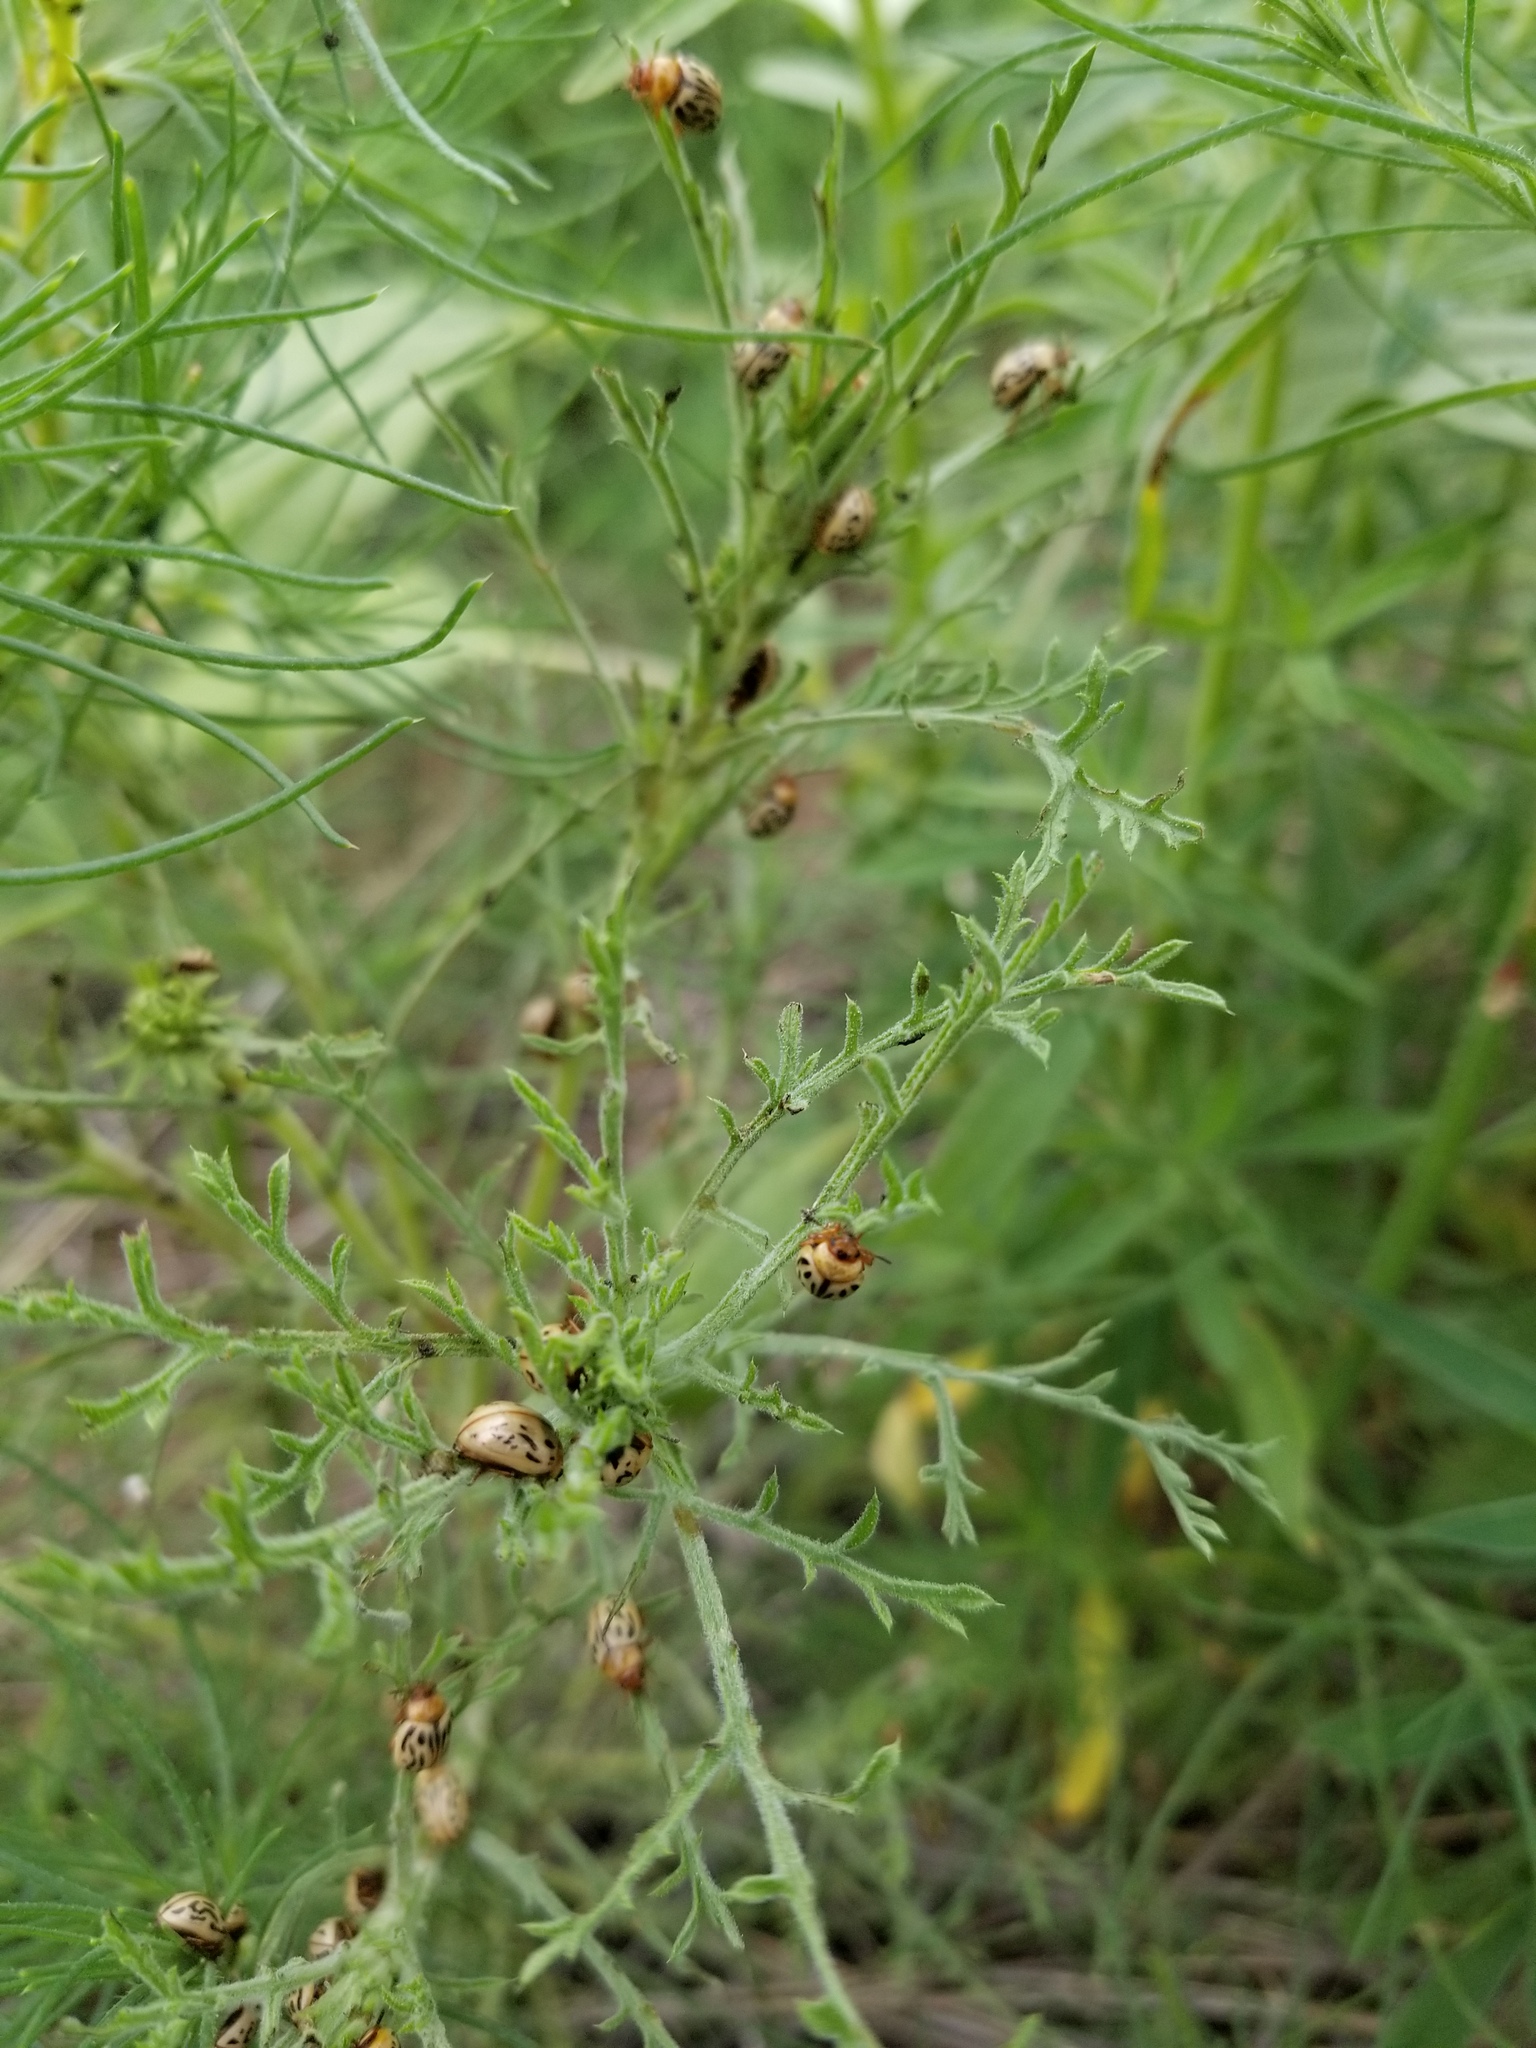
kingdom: Animalia
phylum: Arthropoda
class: Insecta
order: Coleoptera
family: Chrysomelidae
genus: Calligrapha
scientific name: Calligrapha
